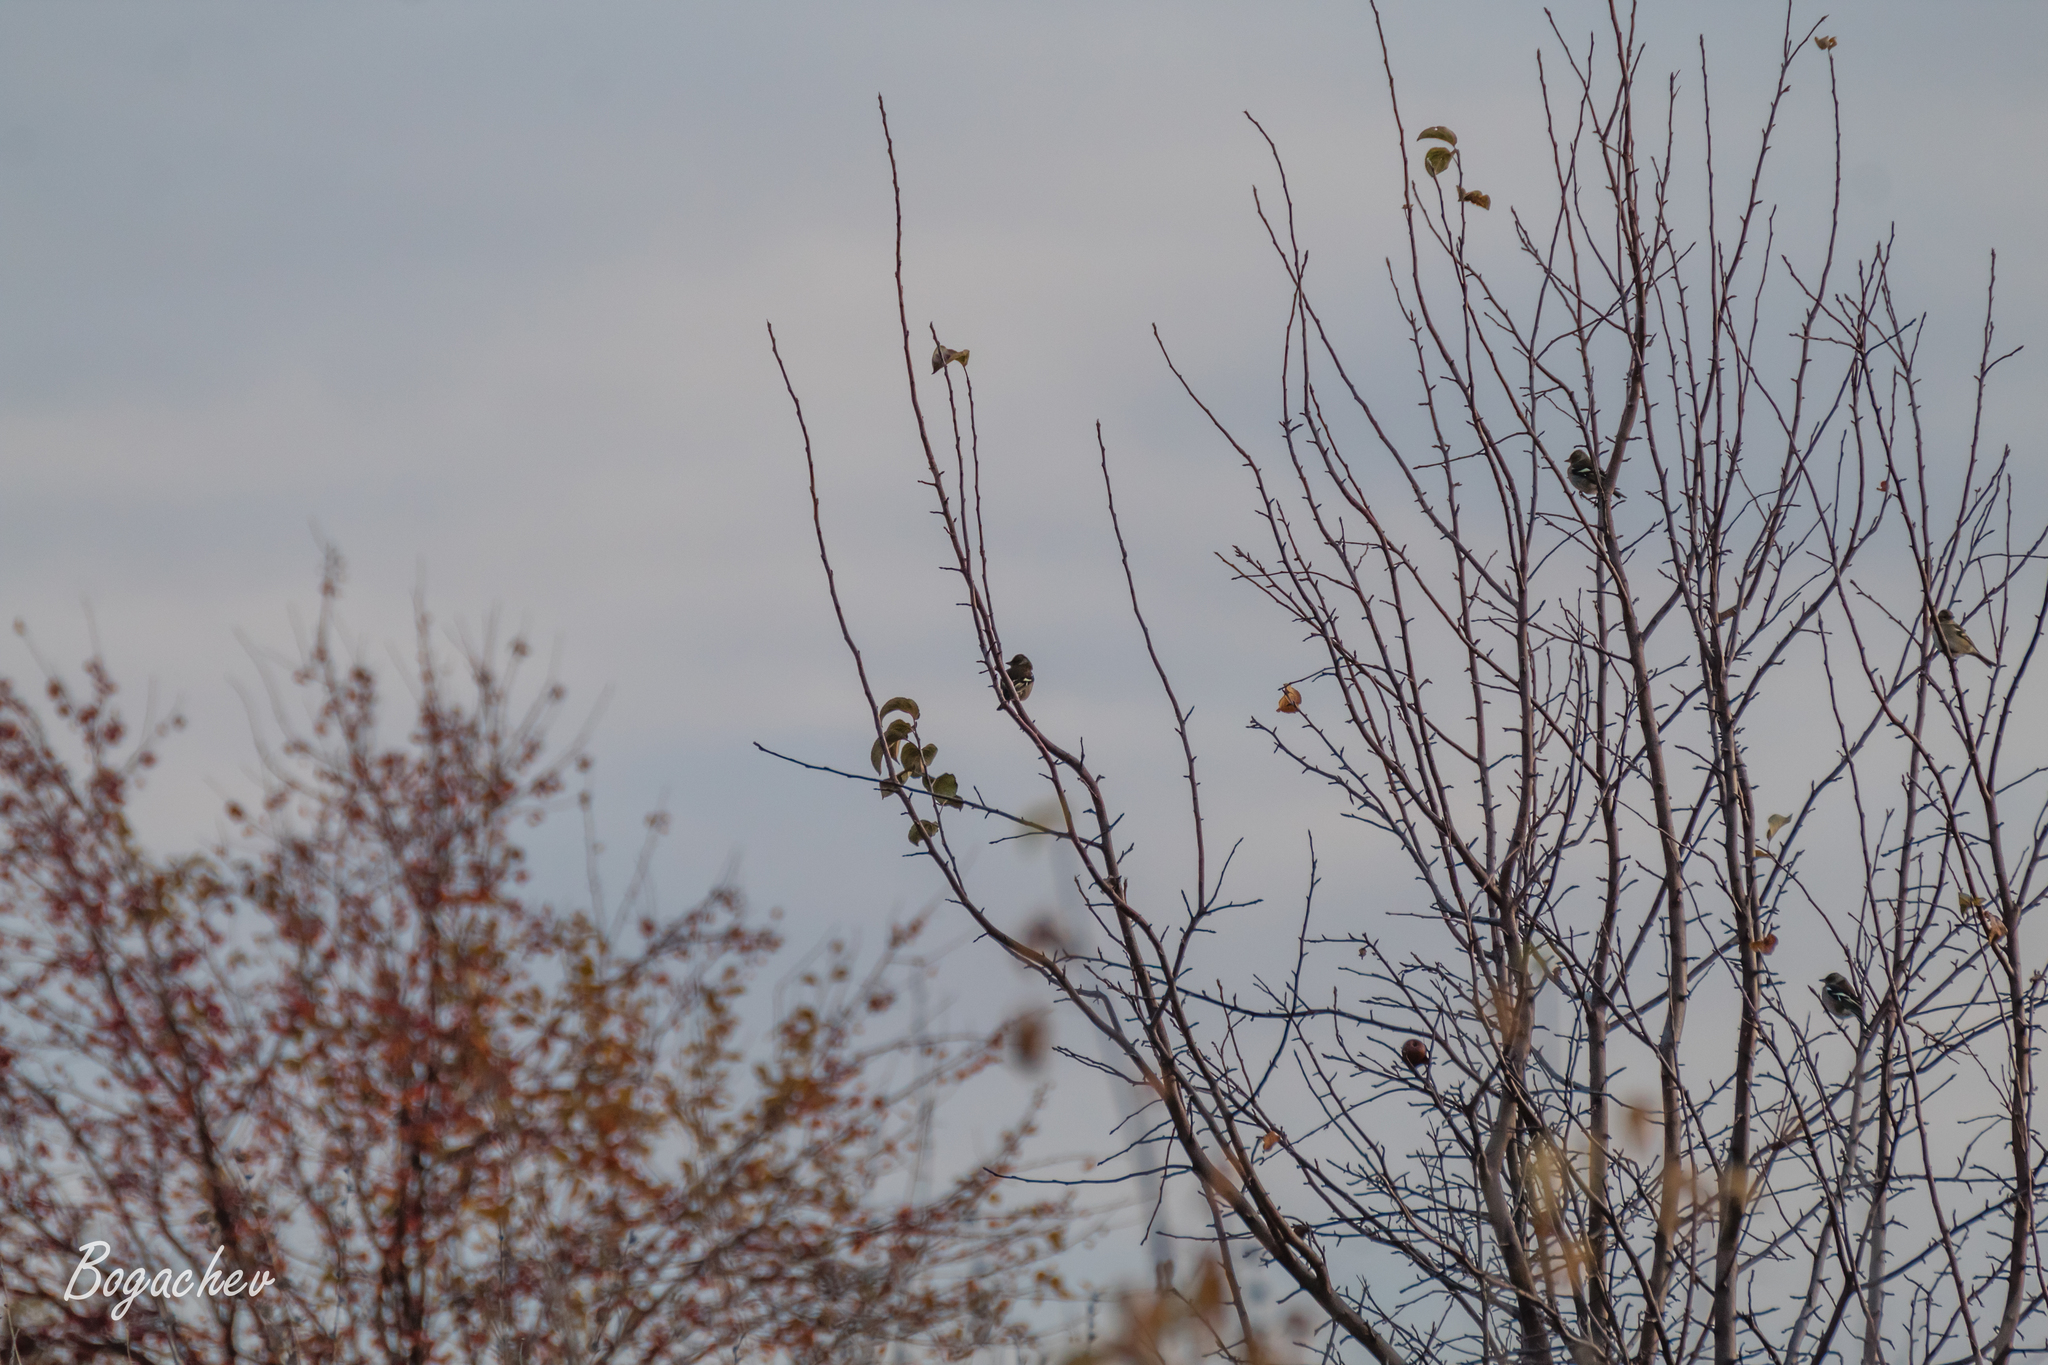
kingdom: Animalia
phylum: Chordata
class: Aves
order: Passeriformes
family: Fringillidae
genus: Fringilla
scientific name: Fringilla coelebs
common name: Common chaffinch
